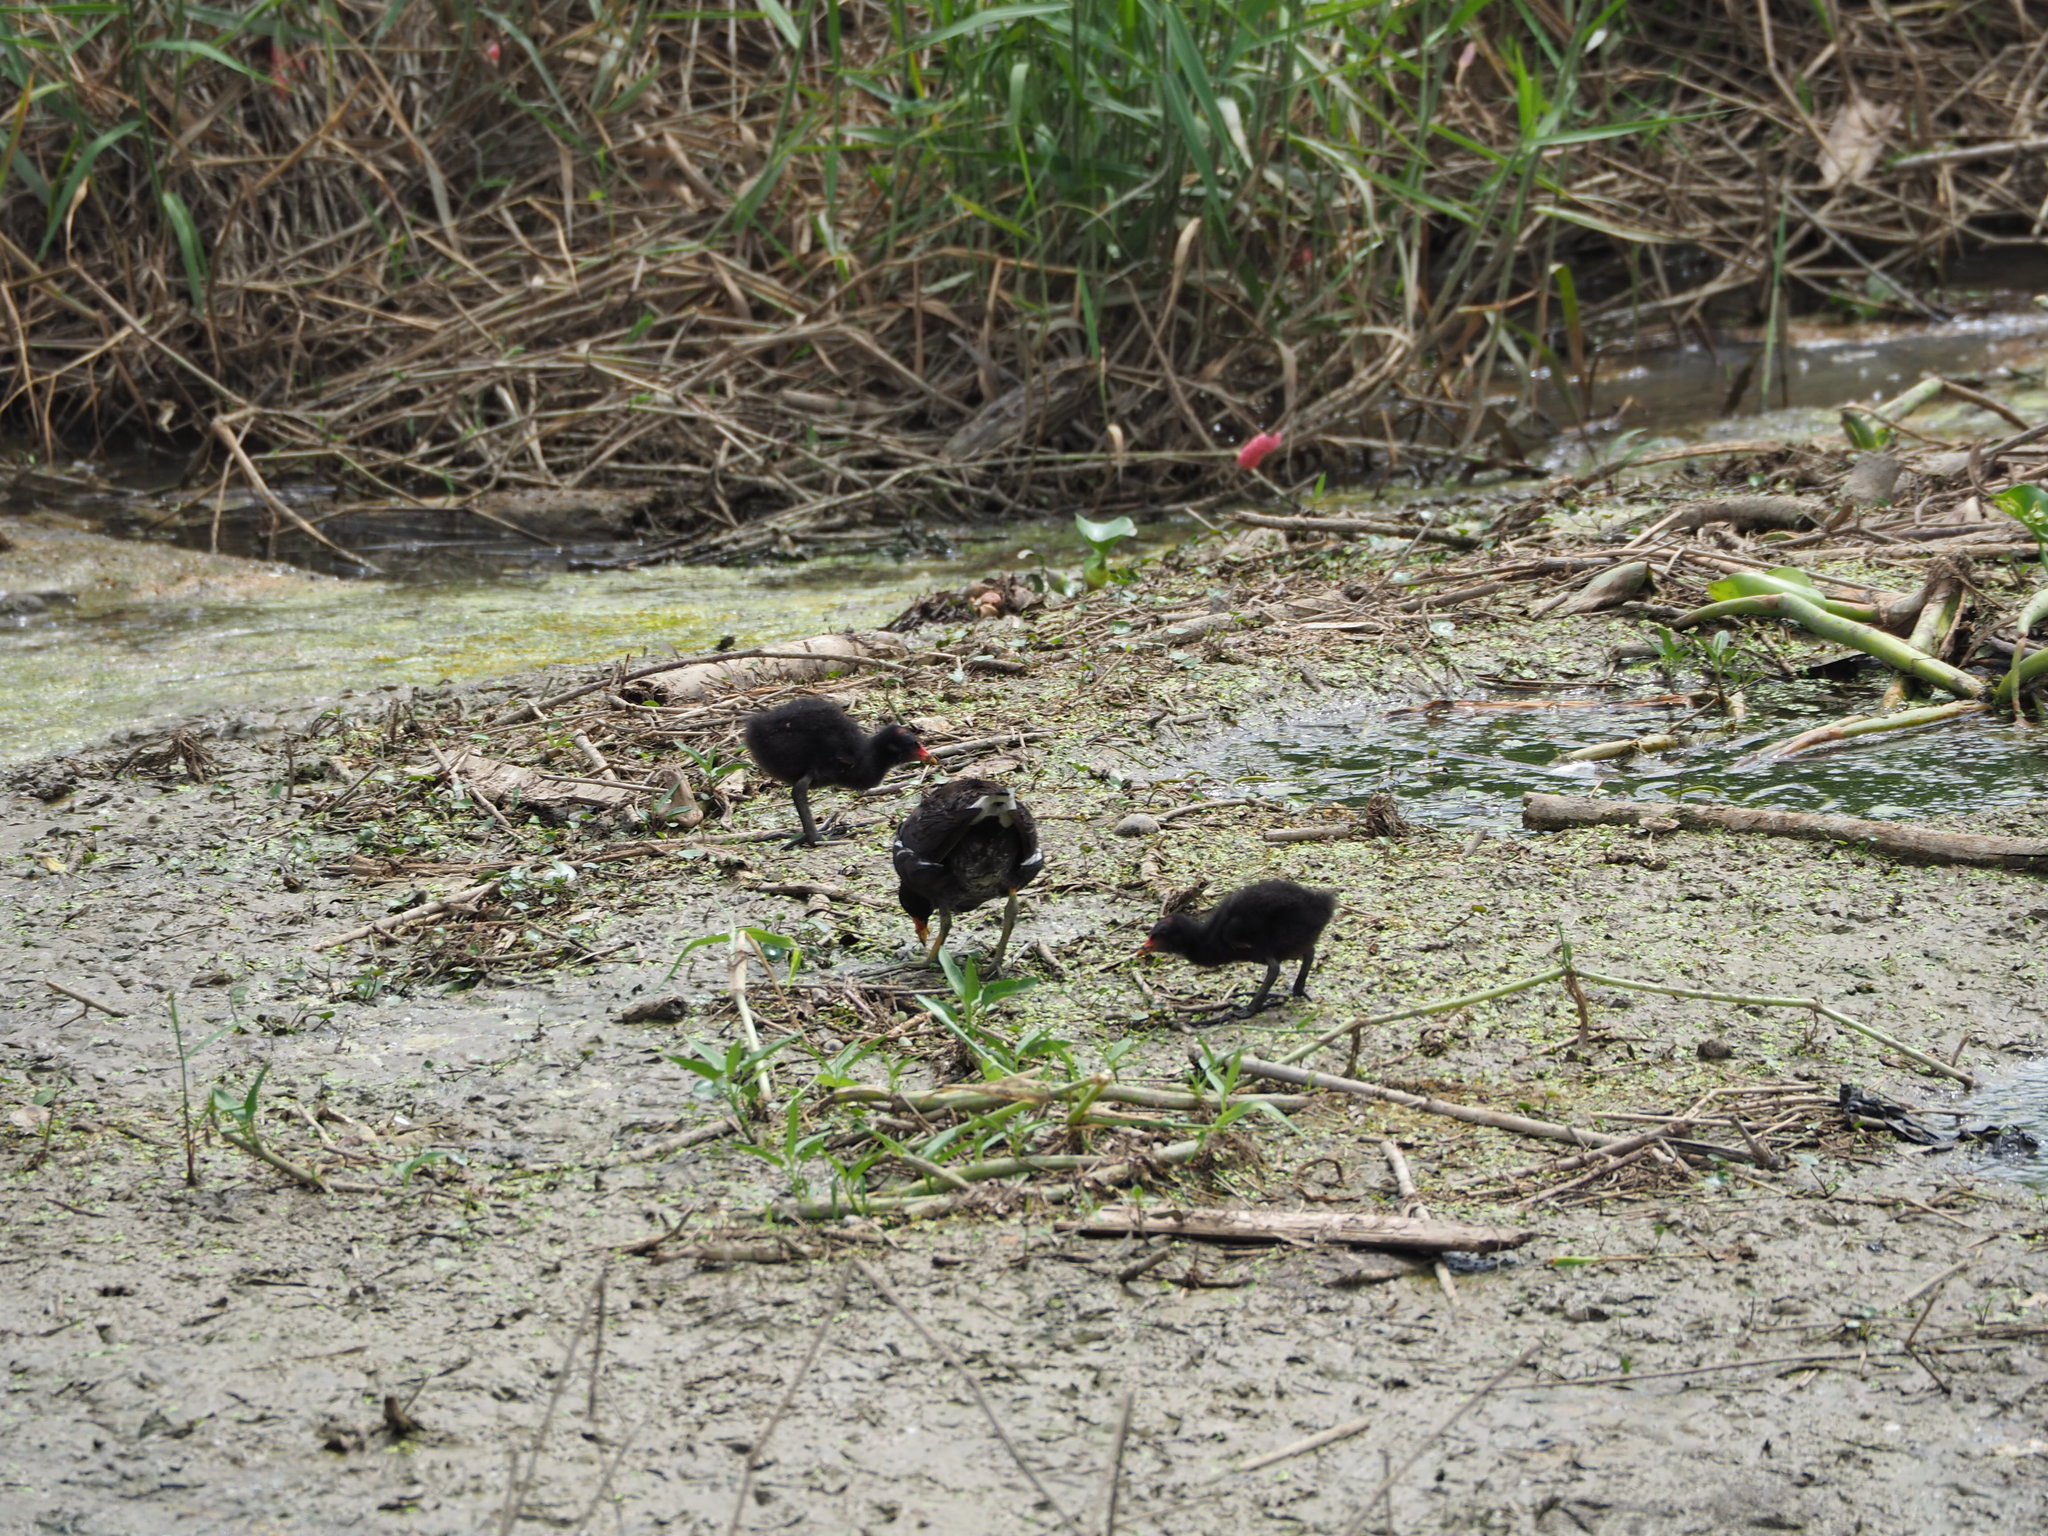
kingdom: Animalia
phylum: Chordata
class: Aves
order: Gruiformes
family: Rallidae
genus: Gallinula
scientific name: Gallinula chloropus
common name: Common moorhen
